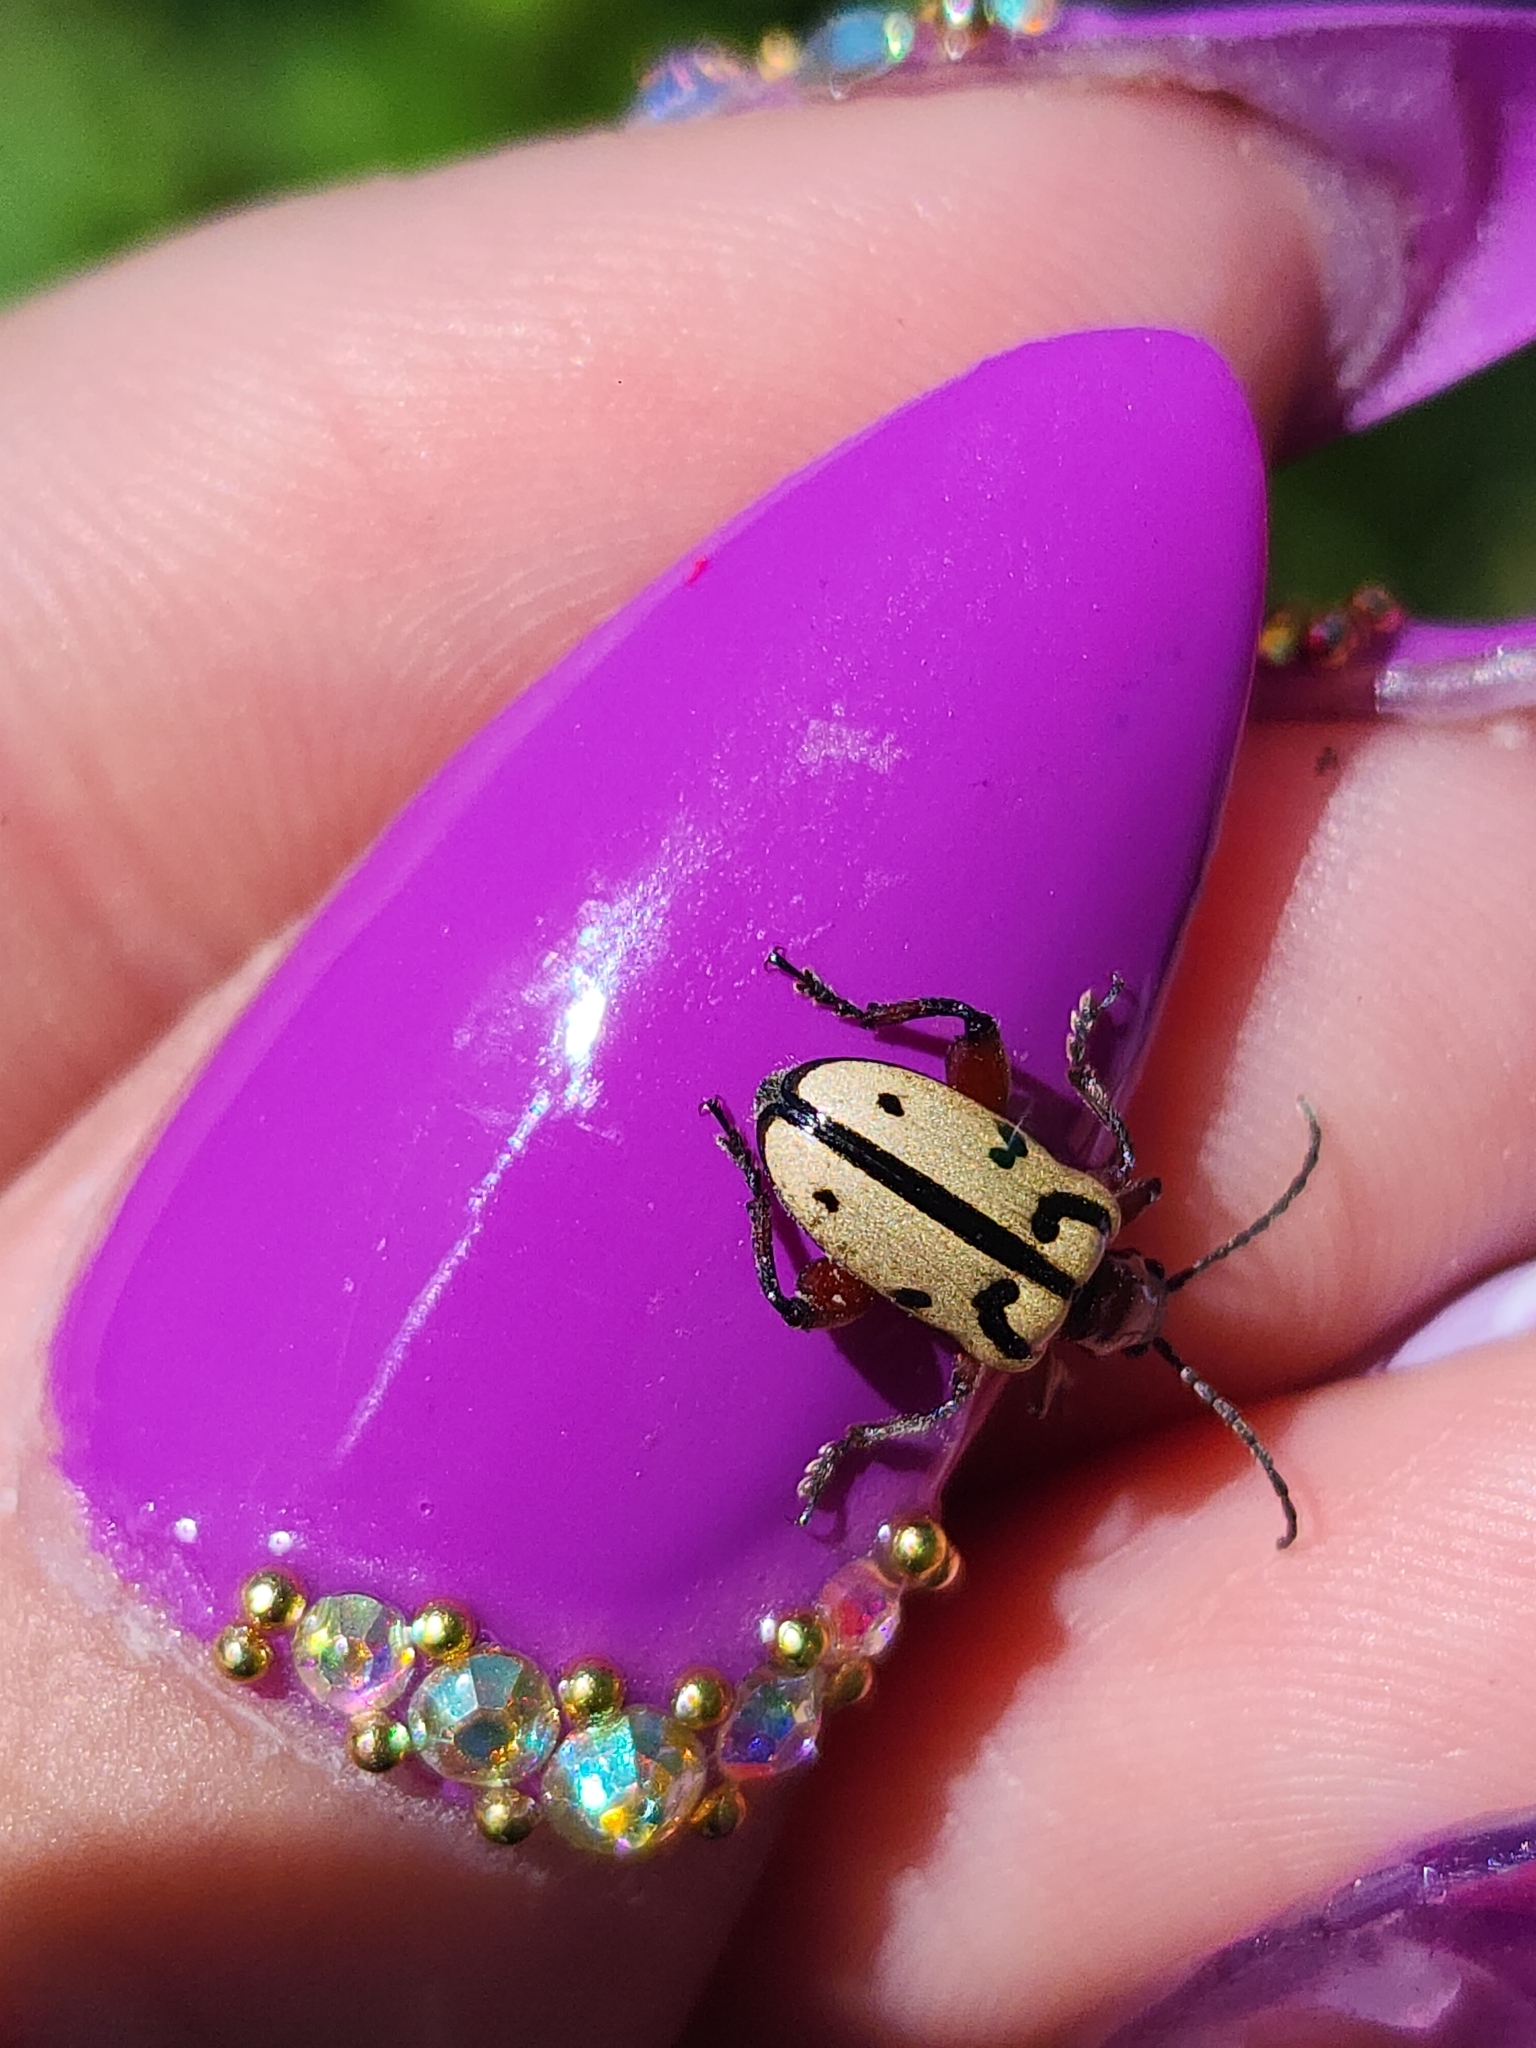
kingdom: Animalia
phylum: Arthropoda
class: Insecta
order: Coleoptera
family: Chrysomelidae
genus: Atalasis
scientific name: Atalasis
